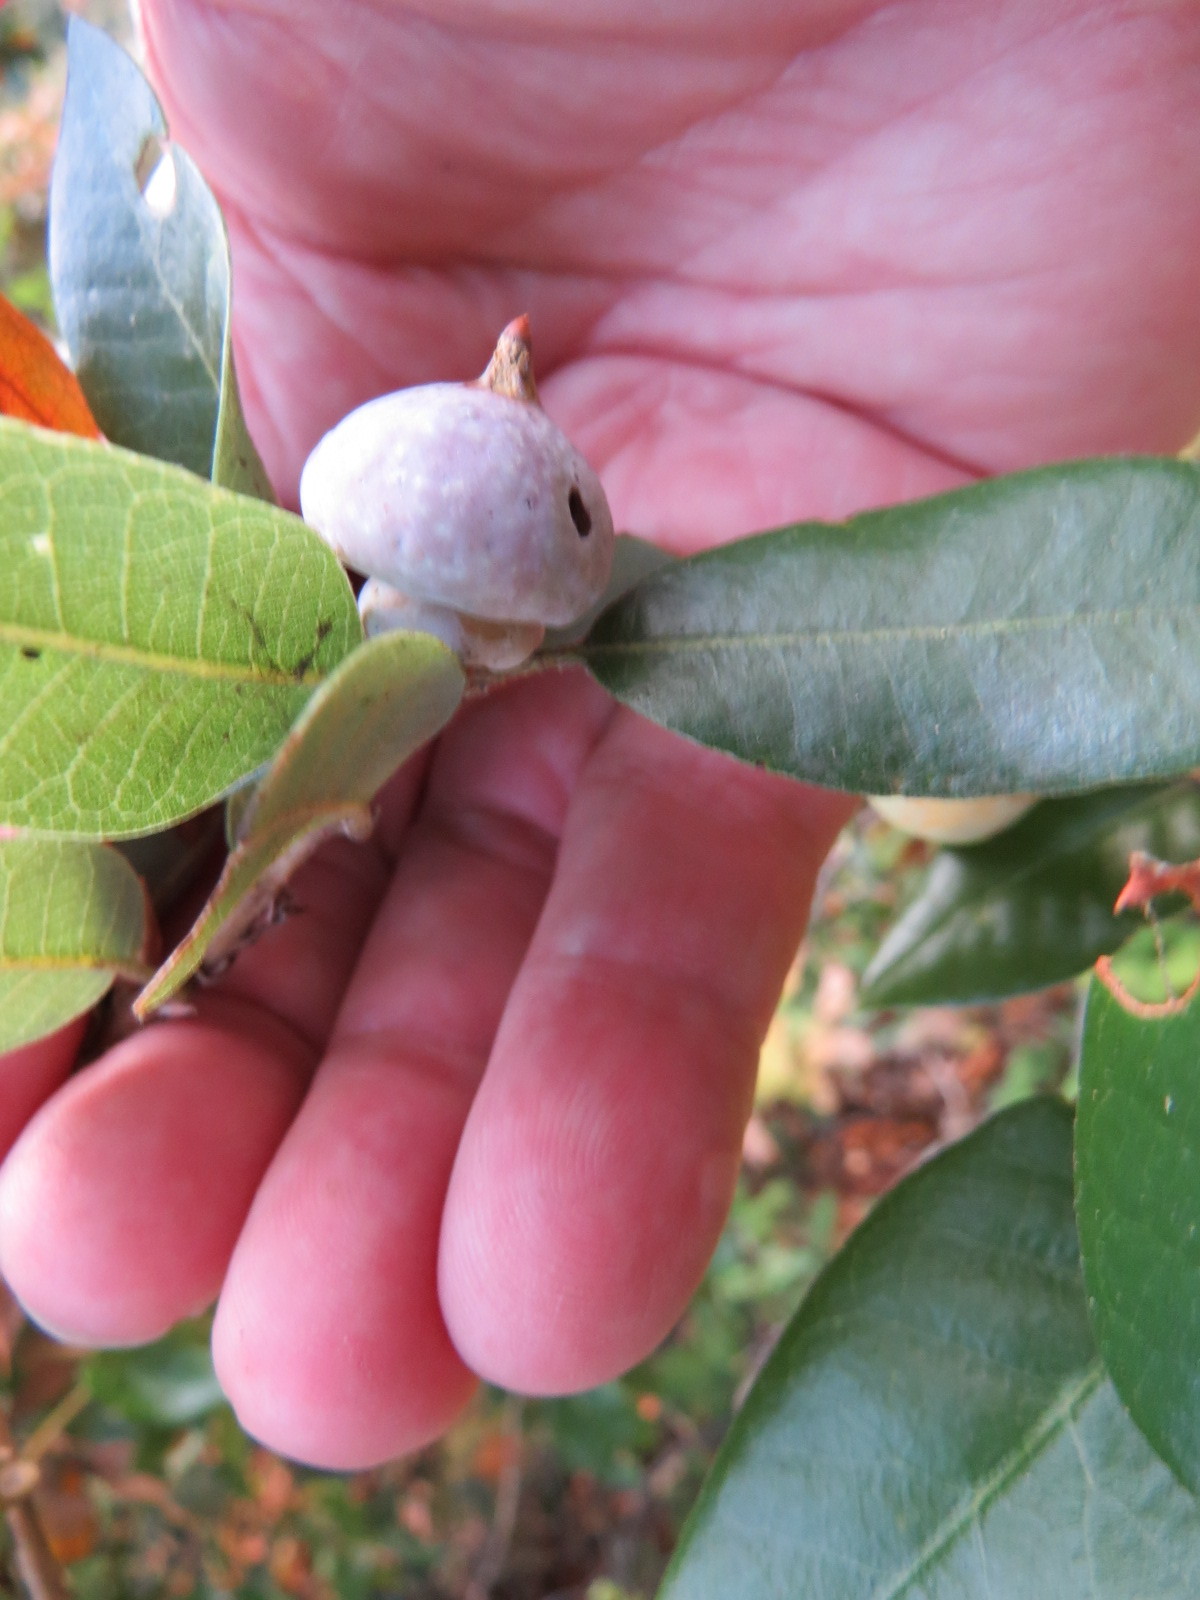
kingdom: Animalia
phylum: Arthropoda
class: Insecta
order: Hymenoptera
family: Cynipidae
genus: Heteroecus
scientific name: Heteroecus
